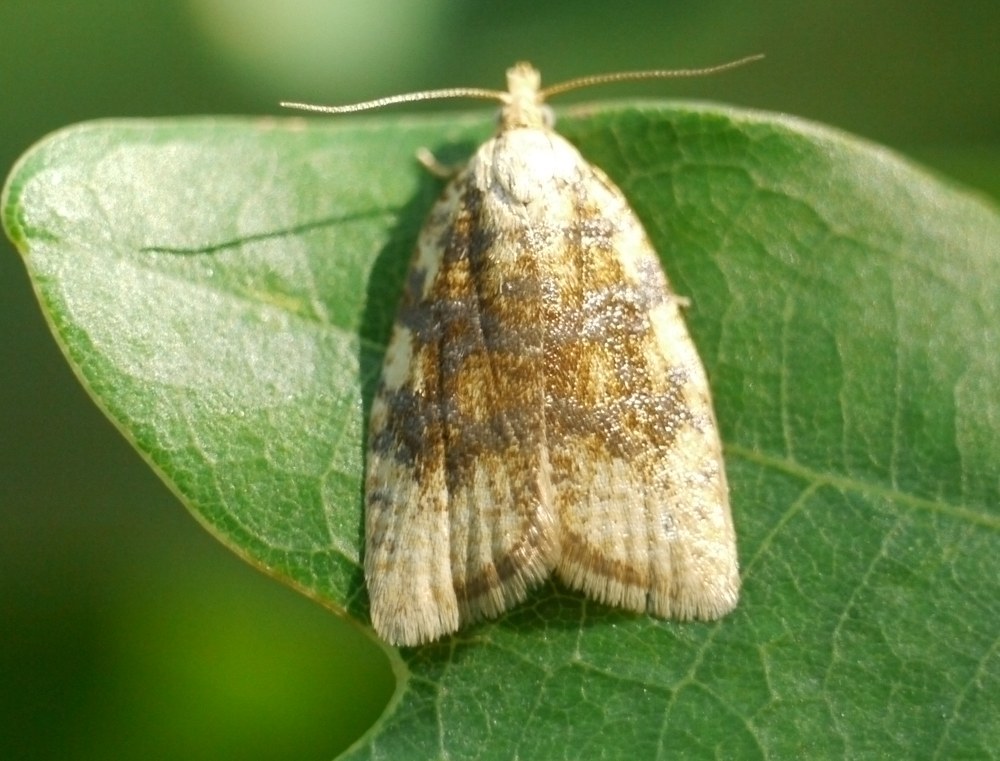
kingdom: Animalia
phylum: Arthropoda
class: Insecta
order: Lepidoptera
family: Tortricidae
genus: Aleimma
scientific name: Aleimma loeflingiana
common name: Yellow oak button
